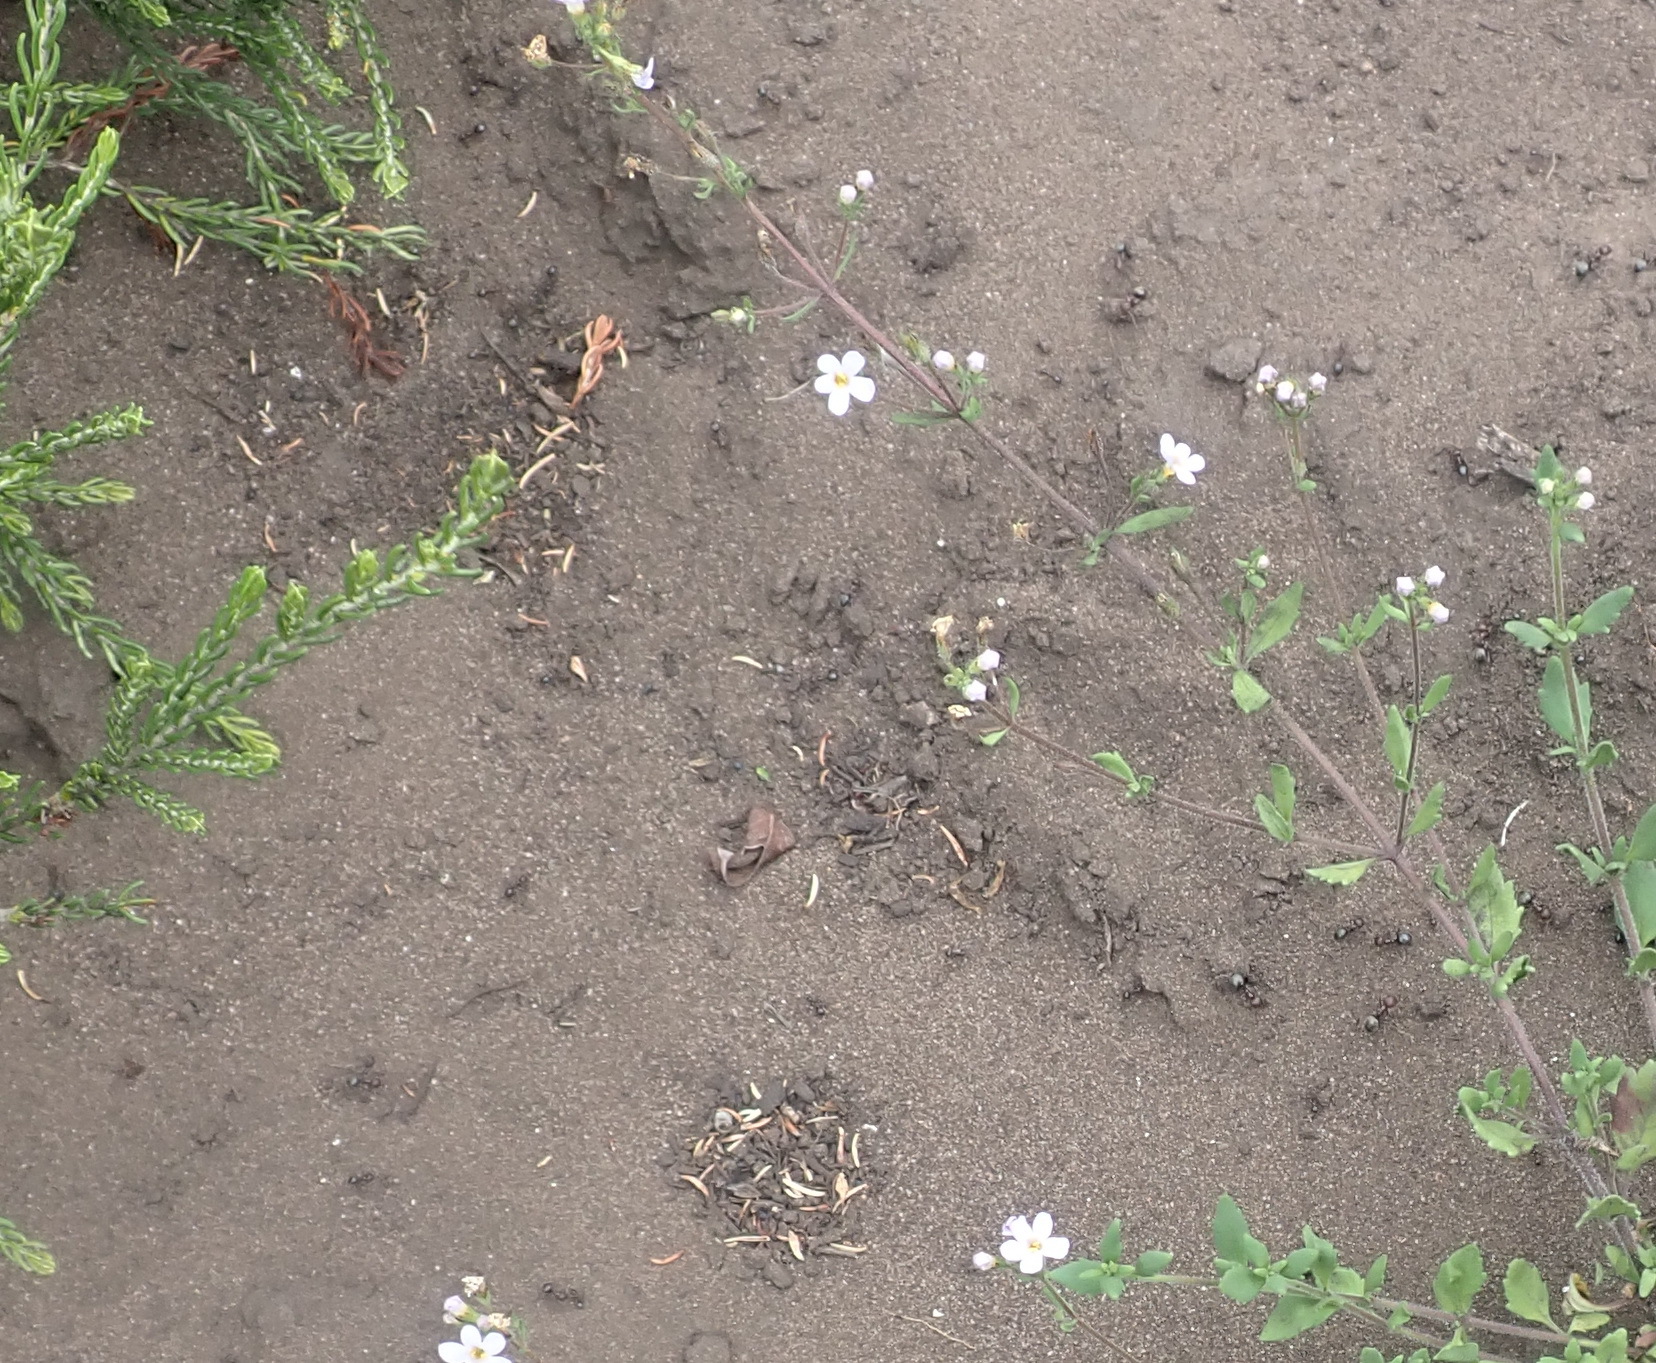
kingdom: Animalia
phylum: Arthropoda
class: Insecta
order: Hymenoptera
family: Formicidae
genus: Anoplolepis
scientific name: Anoplolepis steingroeveri
